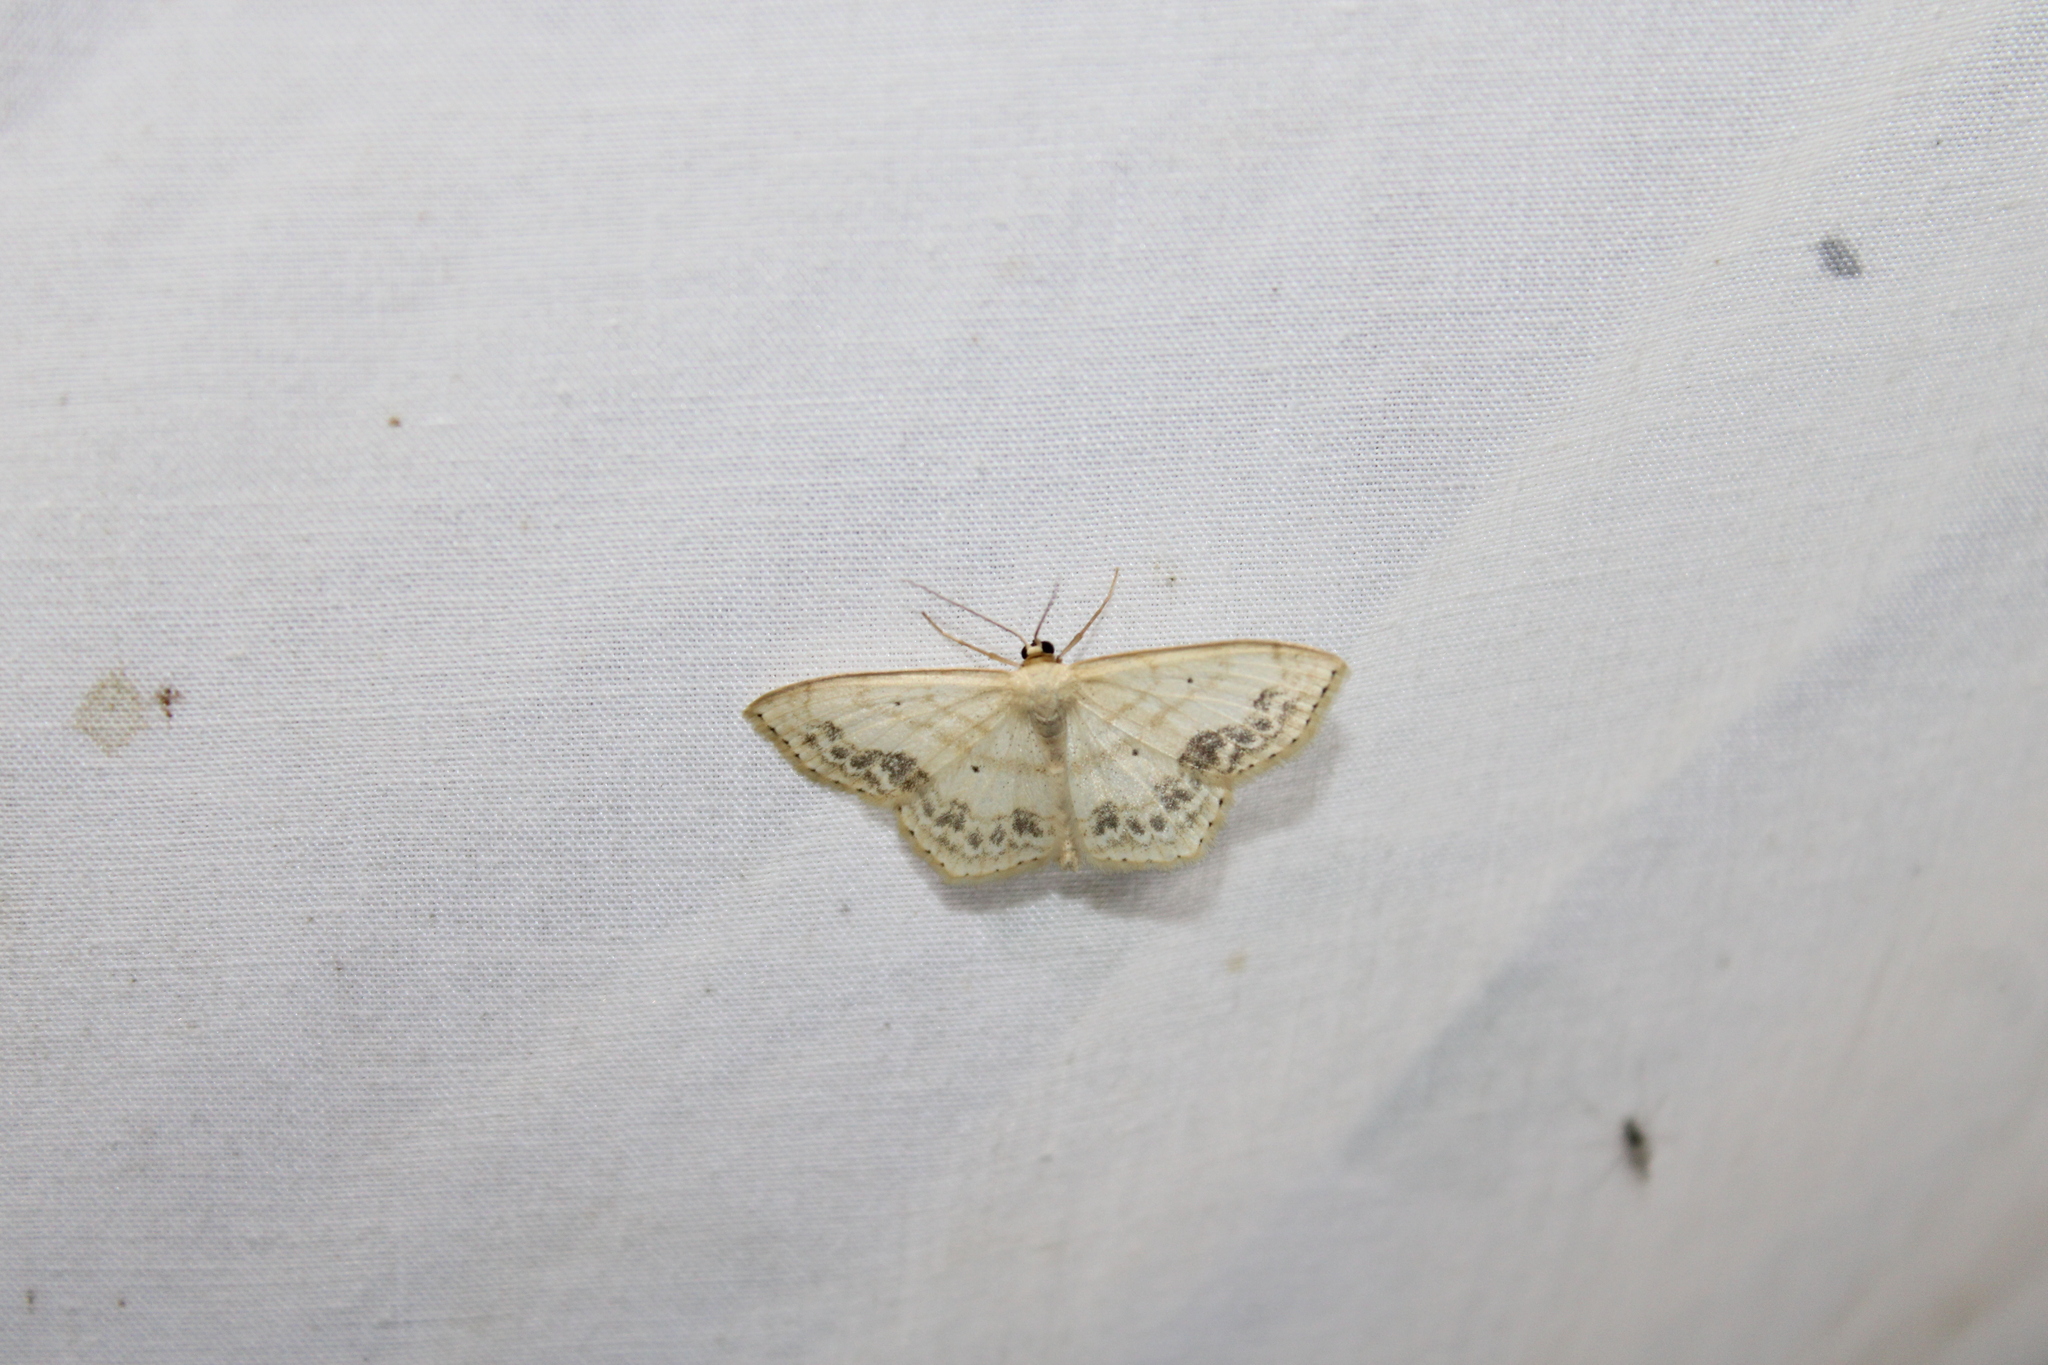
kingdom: Animalia
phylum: Arthropoda
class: Insecta
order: Lepidoptera
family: Geometridae
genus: Scopula
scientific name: Scopula limboundata
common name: Large lace border
